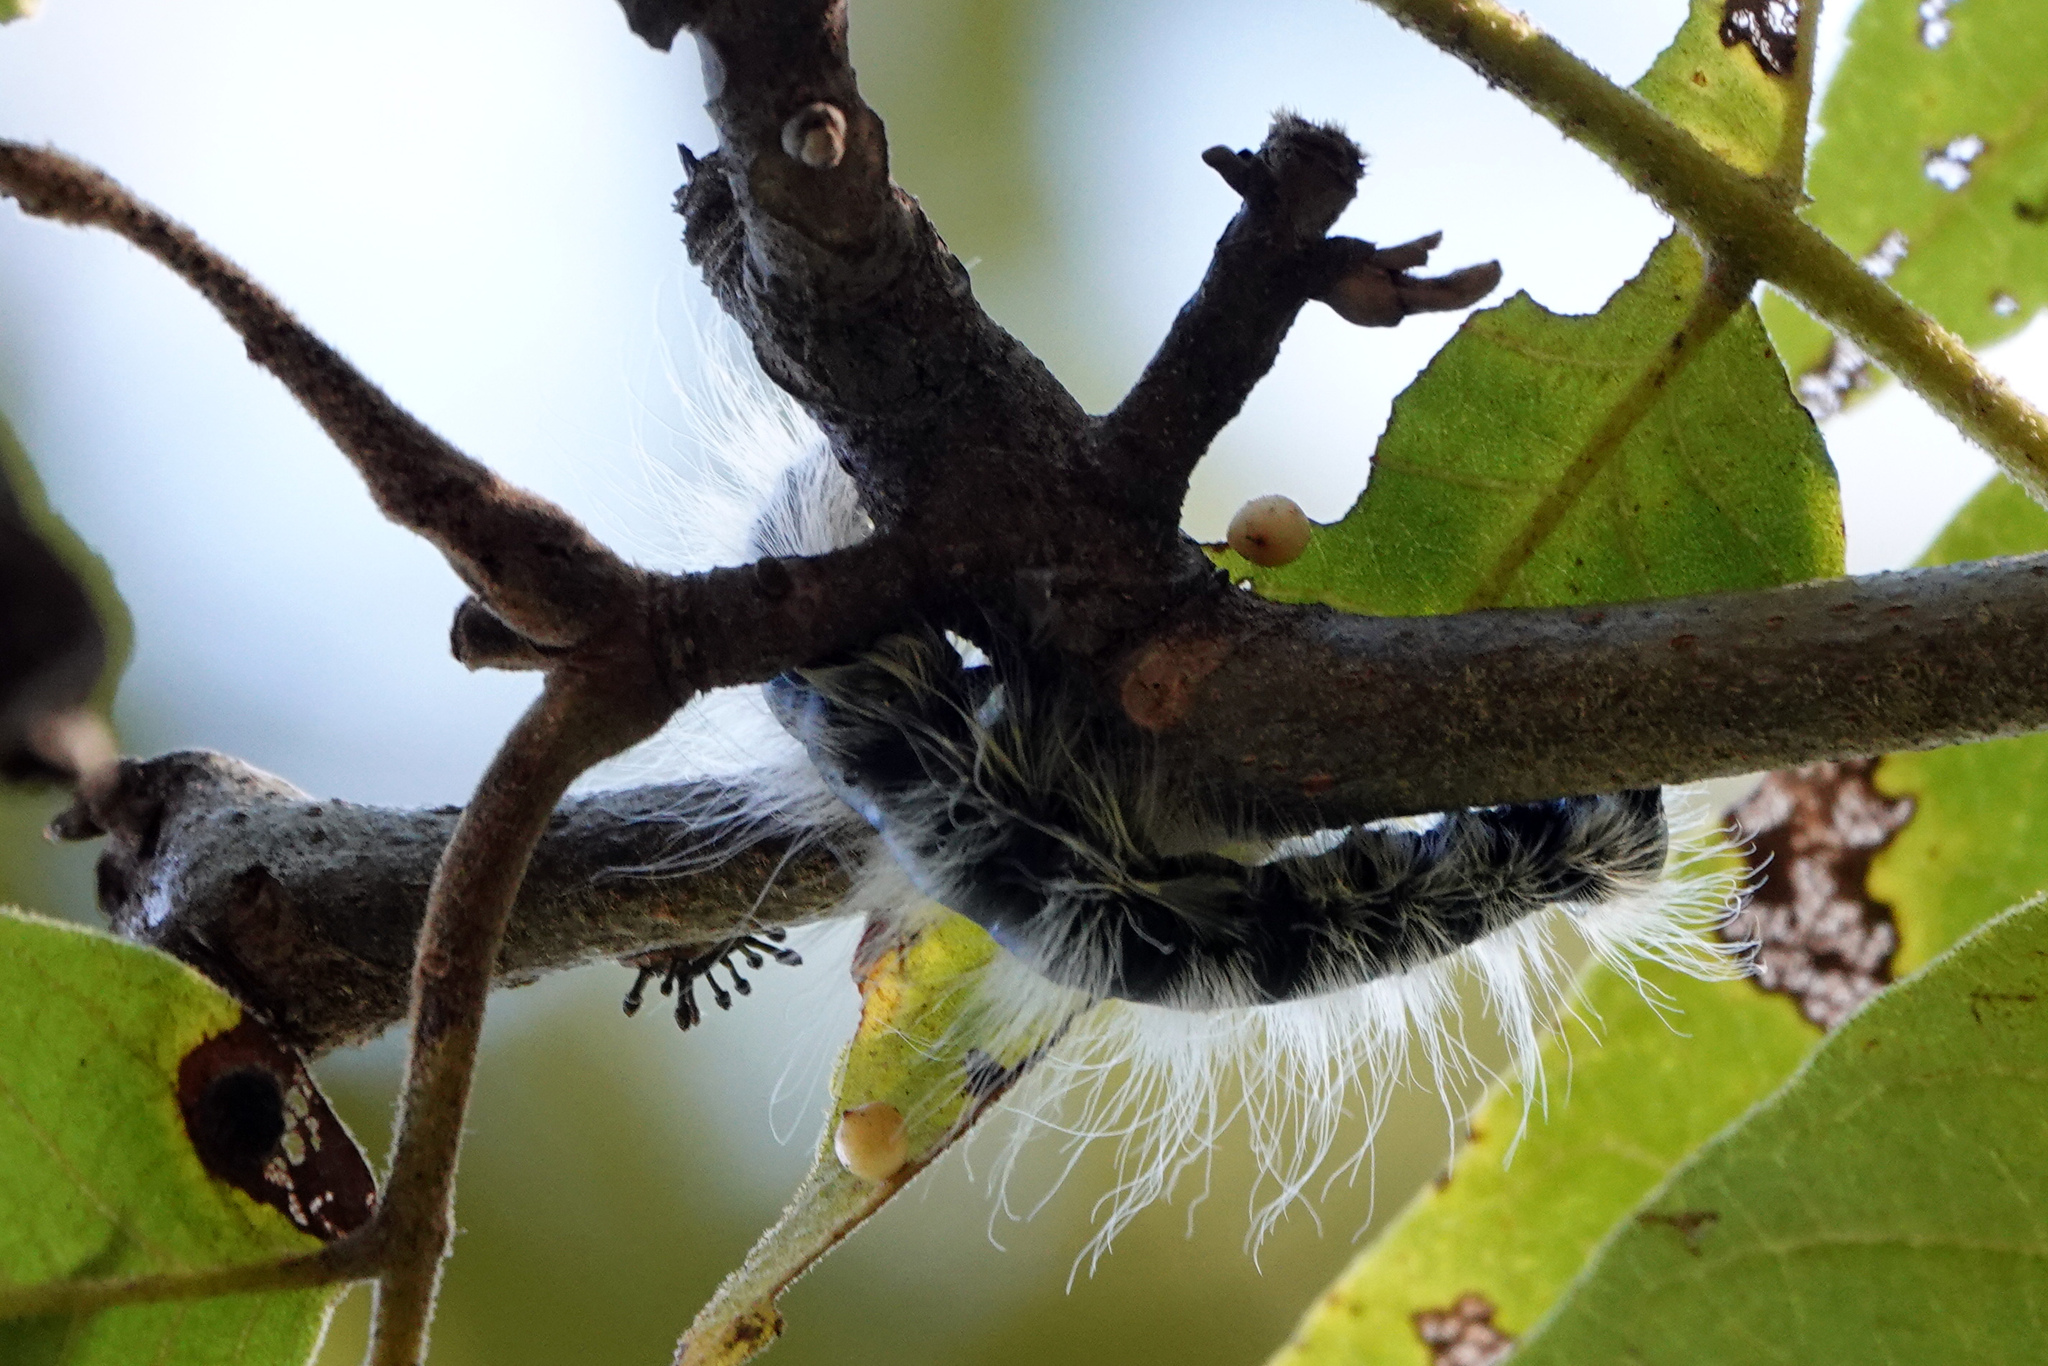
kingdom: Animalia
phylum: Arthropoda
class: Insecta
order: Lepidoptera
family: Notodontidae
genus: Datana
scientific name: Datana integerrima
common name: Walnut caterpillar
